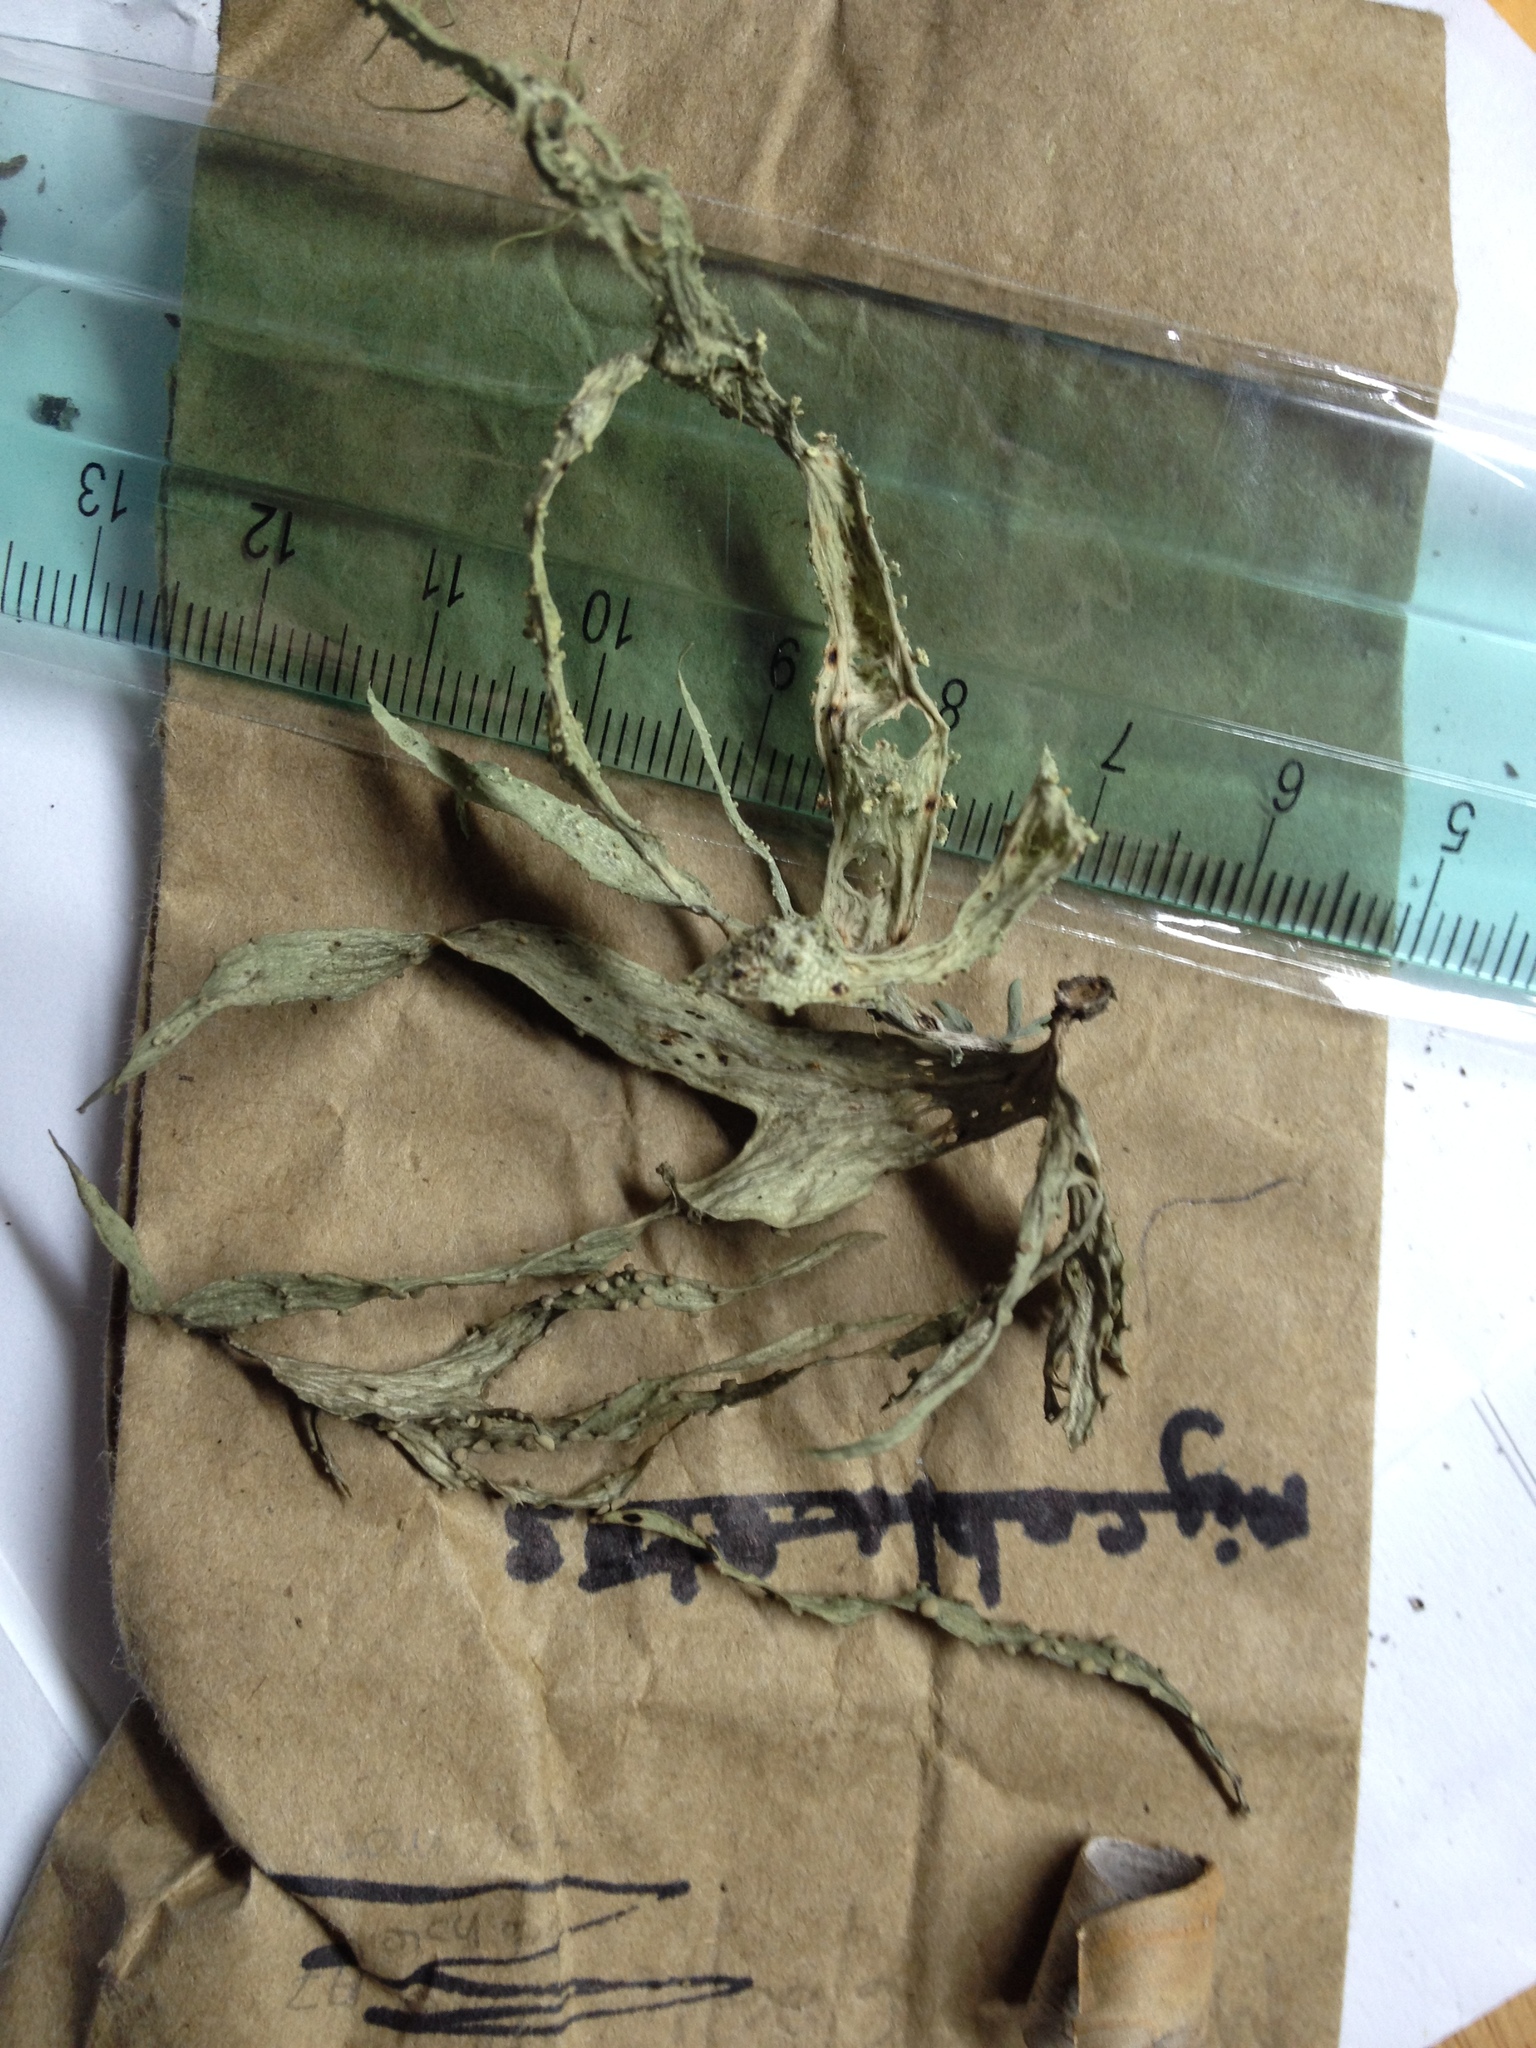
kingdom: Fungi
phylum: Ascomycota
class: Lecanoromycetes
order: Lecanorales
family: Ramalinaceae
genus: Ramalina
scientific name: Ramalina celastri
